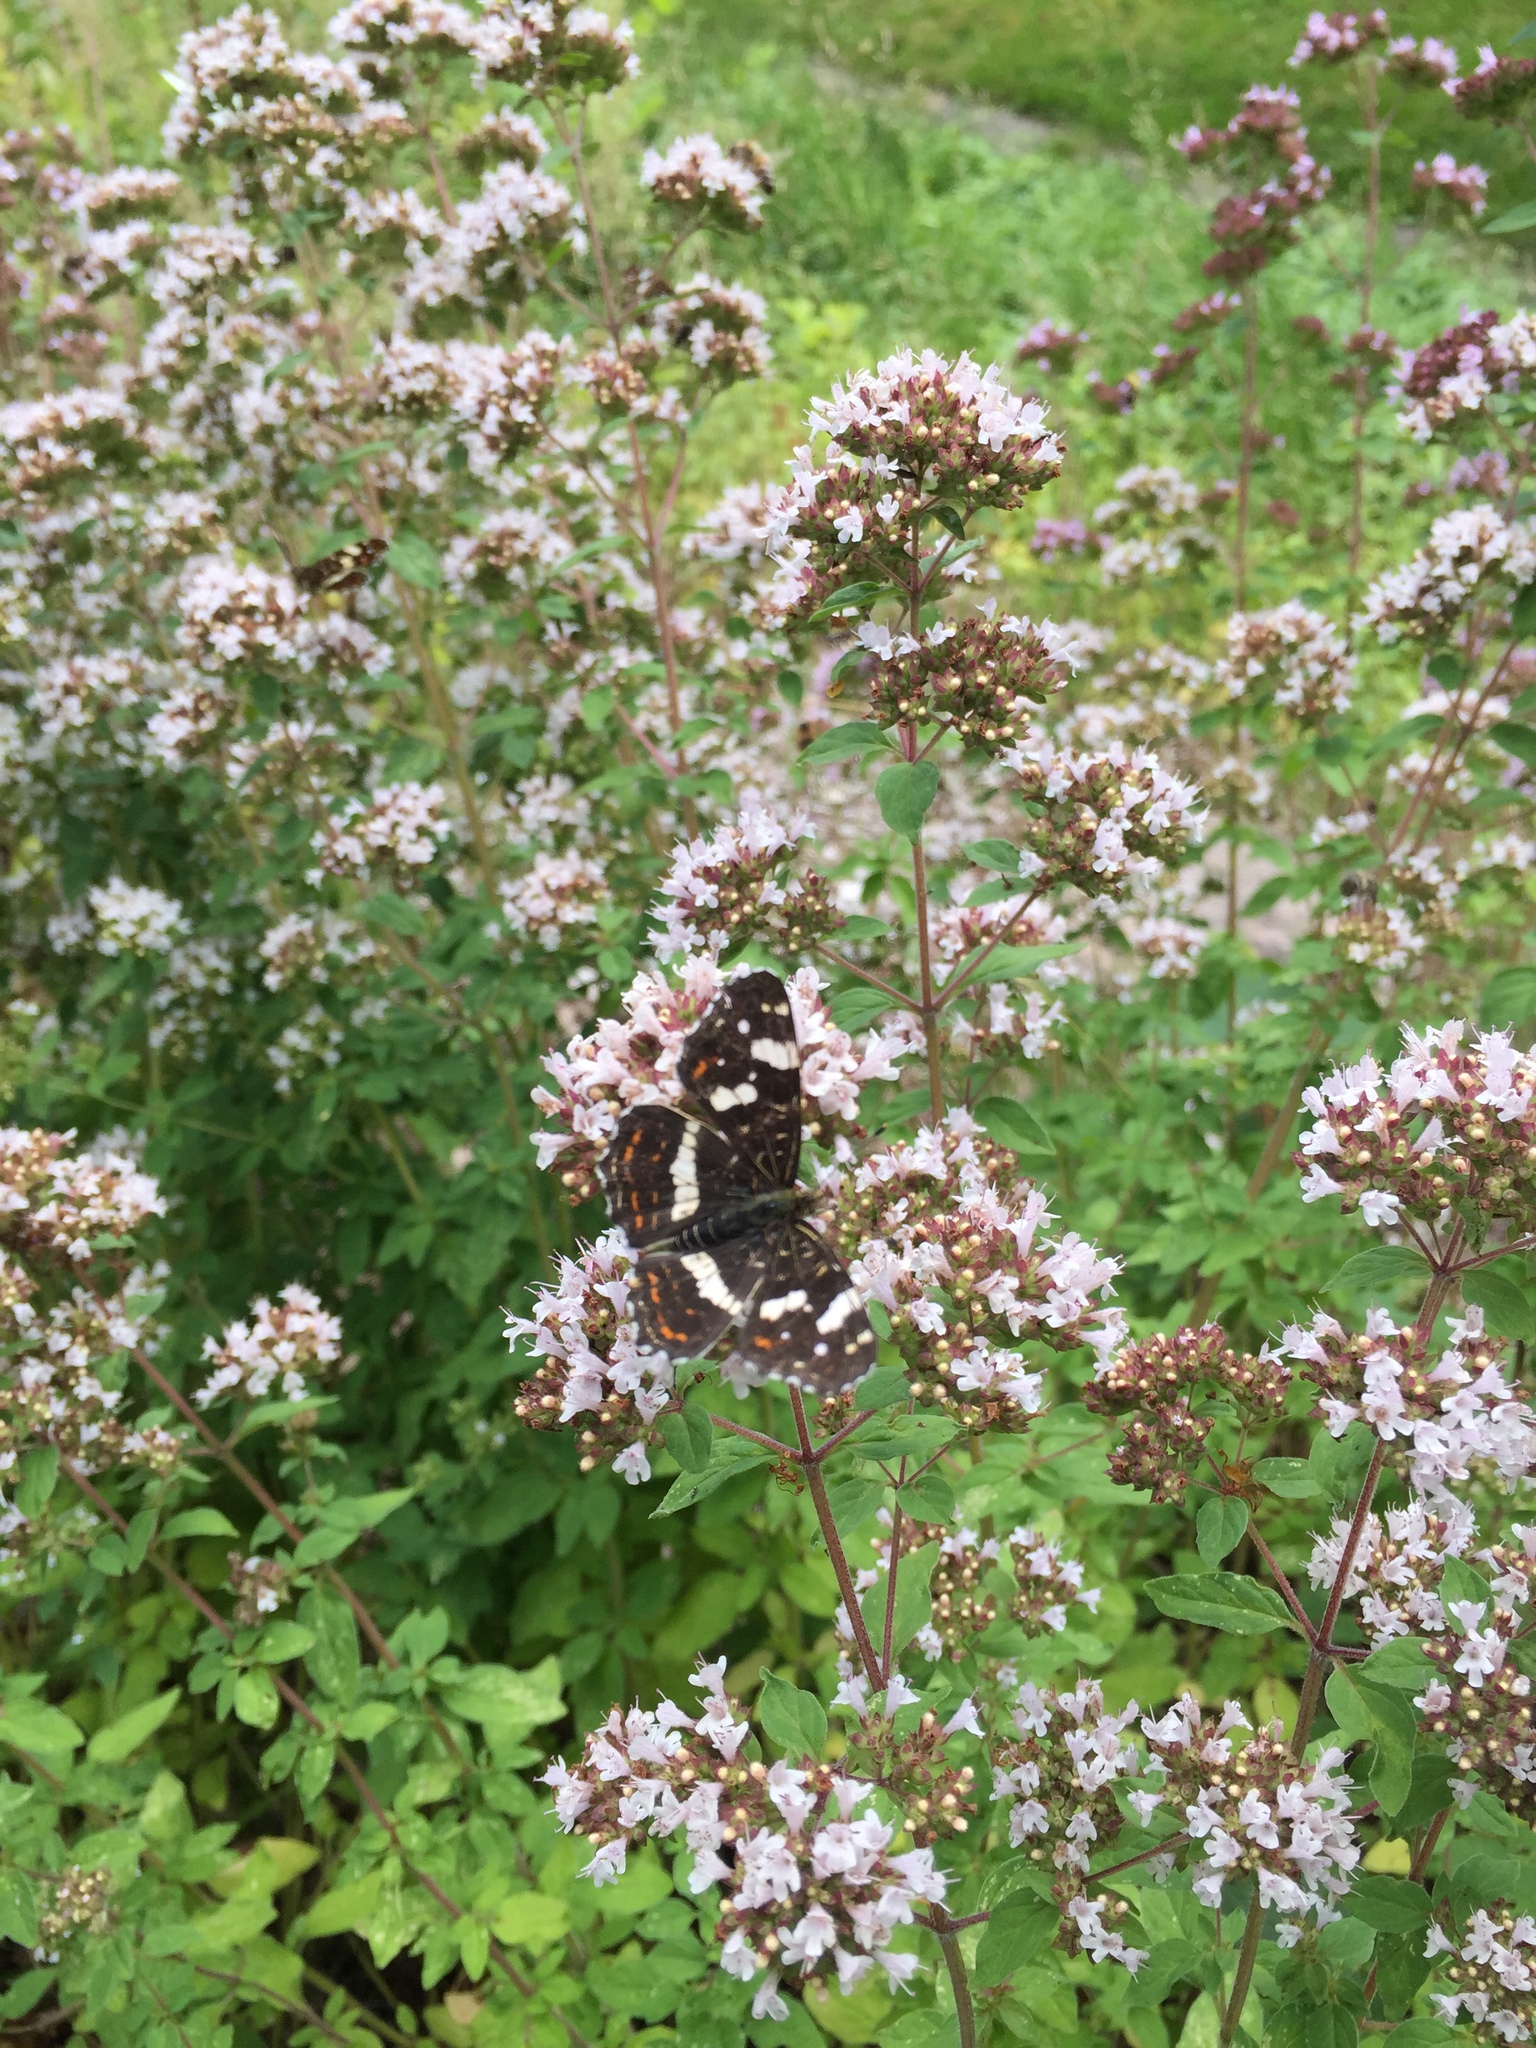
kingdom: Animalia
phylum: Arthropoda
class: Insecta
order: Lepidoptera
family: Nymphalidae
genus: Araschnia
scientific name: Araschnia levana
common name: Map butterfly
